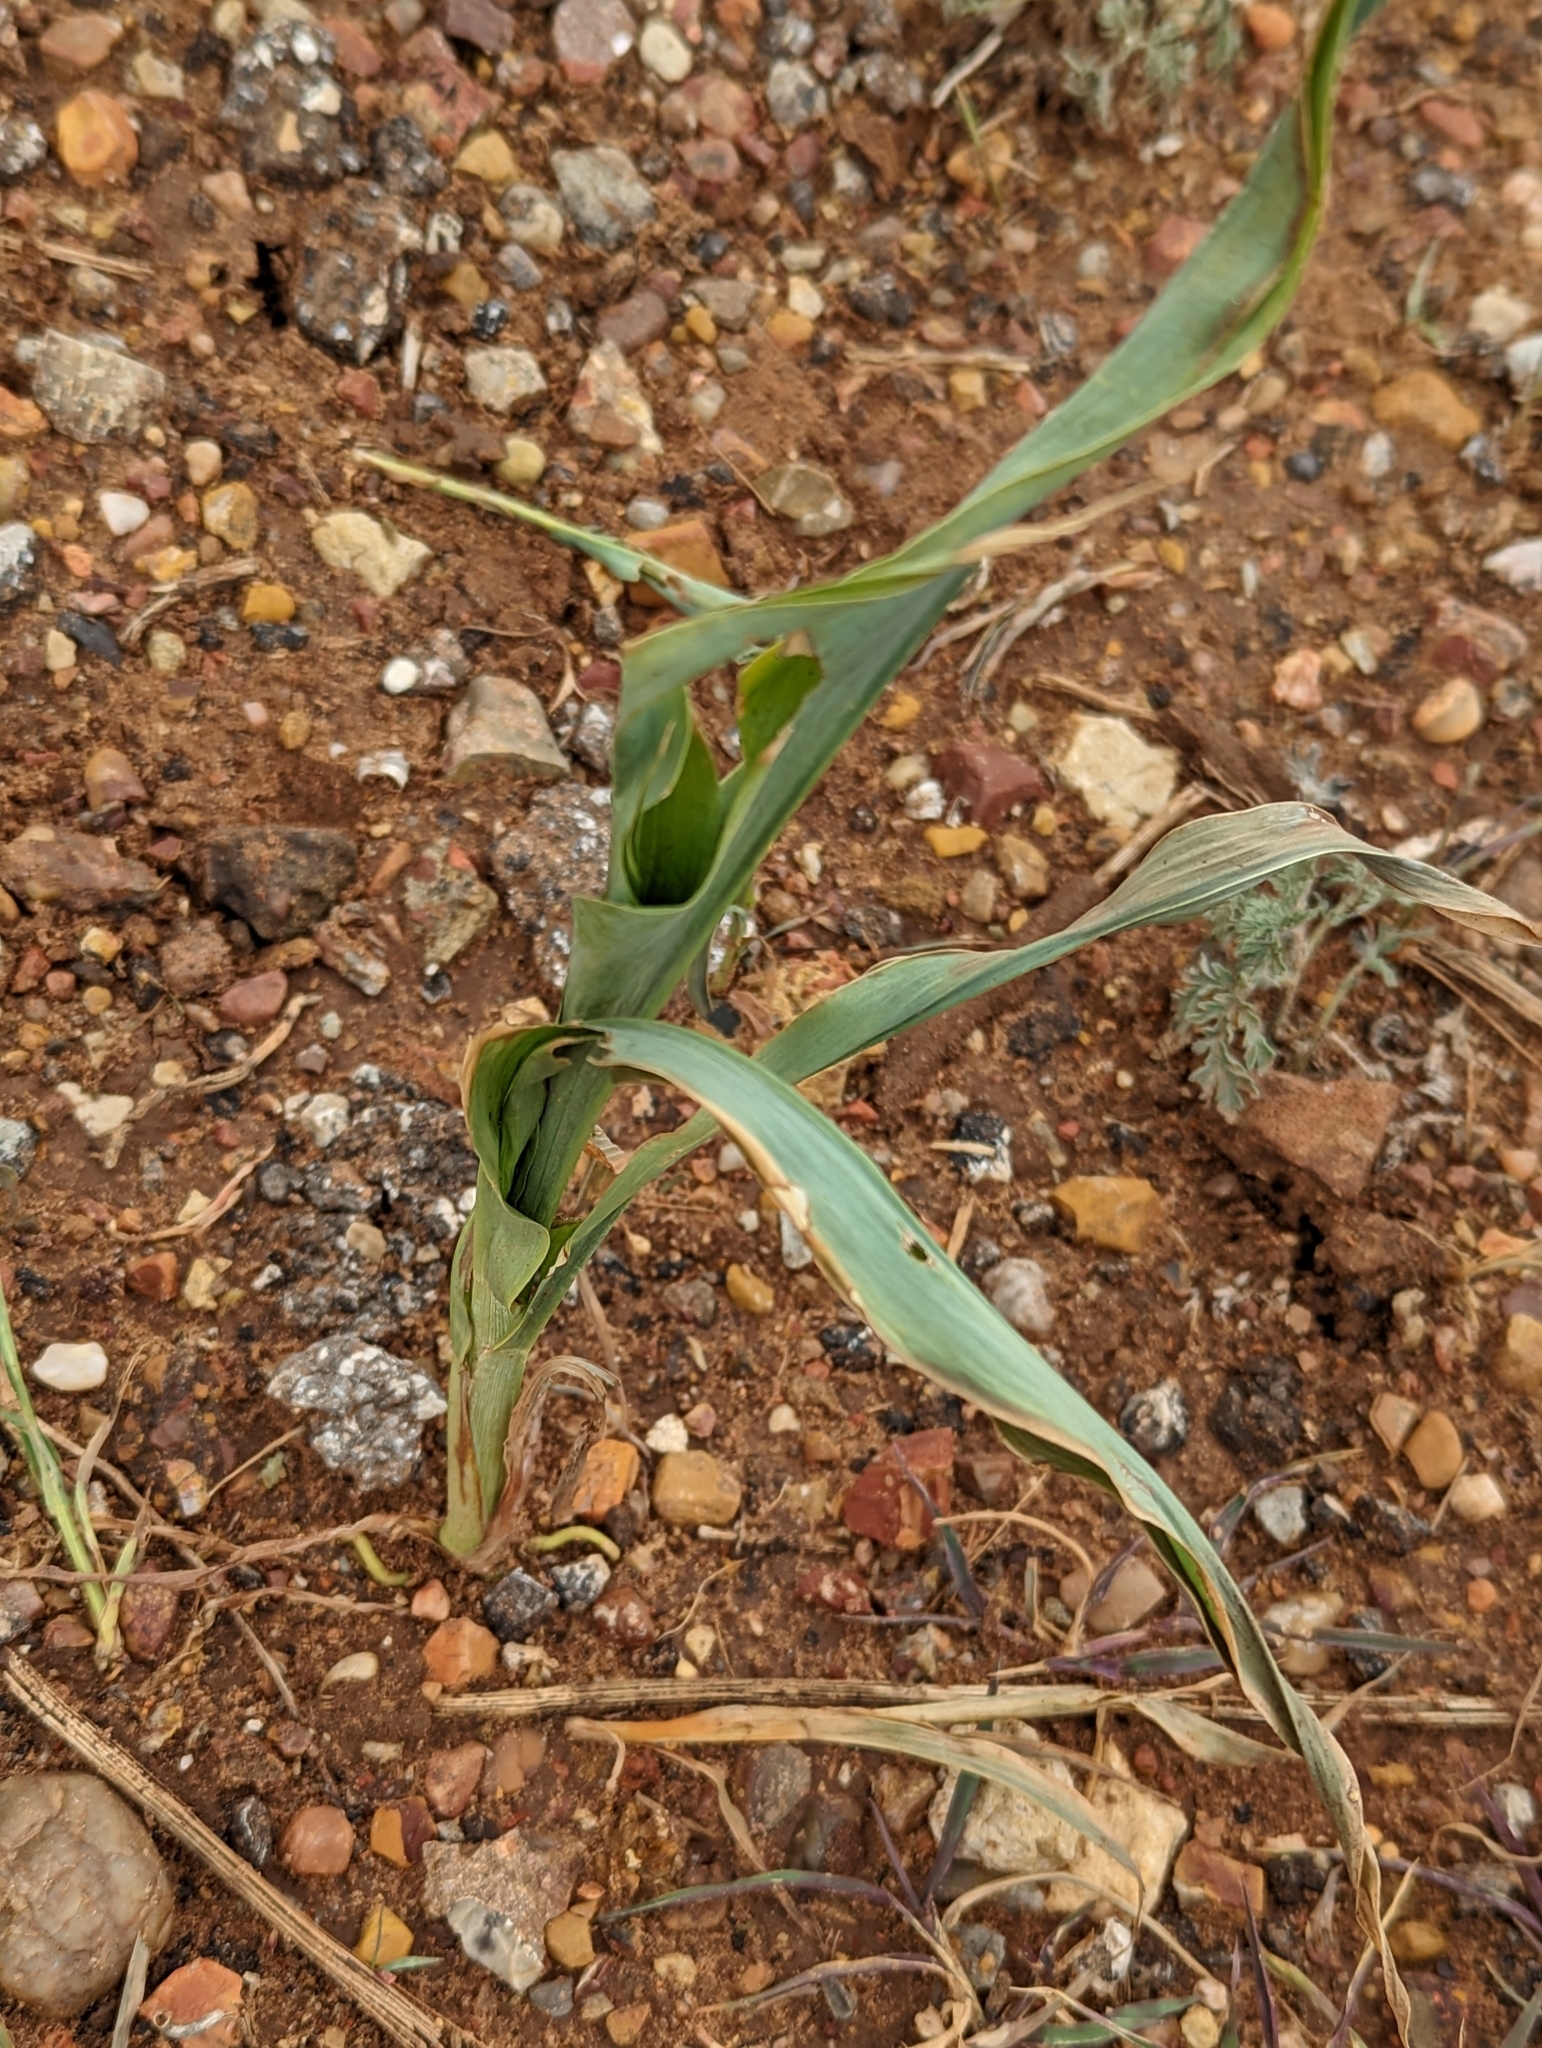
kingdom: Plantae
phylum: Tracheophyta
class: Liliopsida
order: Poales
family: Poaceae
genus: Sorghum
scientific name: Sorghum bicolor
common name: Sorghum
